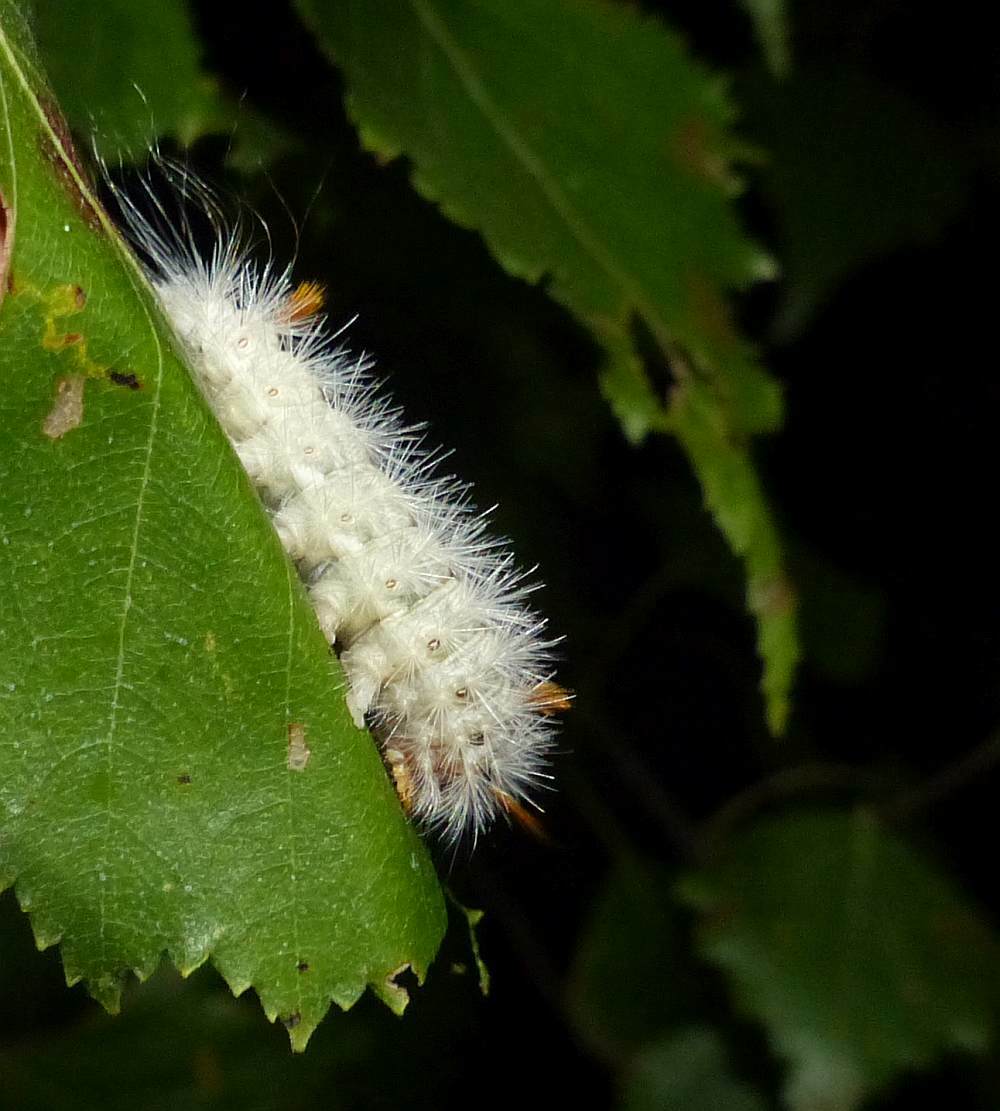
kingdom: Animalia
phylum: Arthropoda
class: Insecta
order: Lepidoptera
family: Noctuidae
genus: Colocasia
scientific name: Colocasia propinquilinea
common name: Close-banded demas
